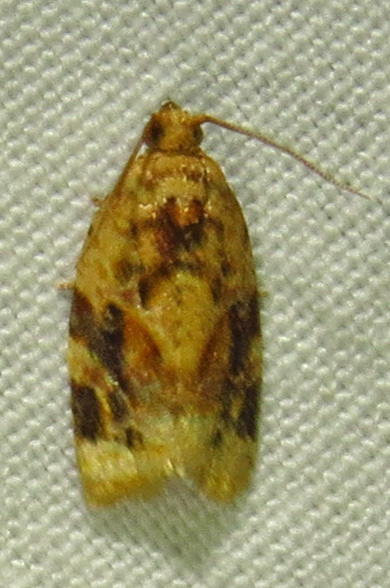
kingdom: Animalia
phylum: Arthropoda
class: Insecta
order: Lepidoptera
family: Tortricidae
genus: Argyrotaenia
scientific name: Argyrotaenia velutinana
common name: Red-banded leafroller moth
